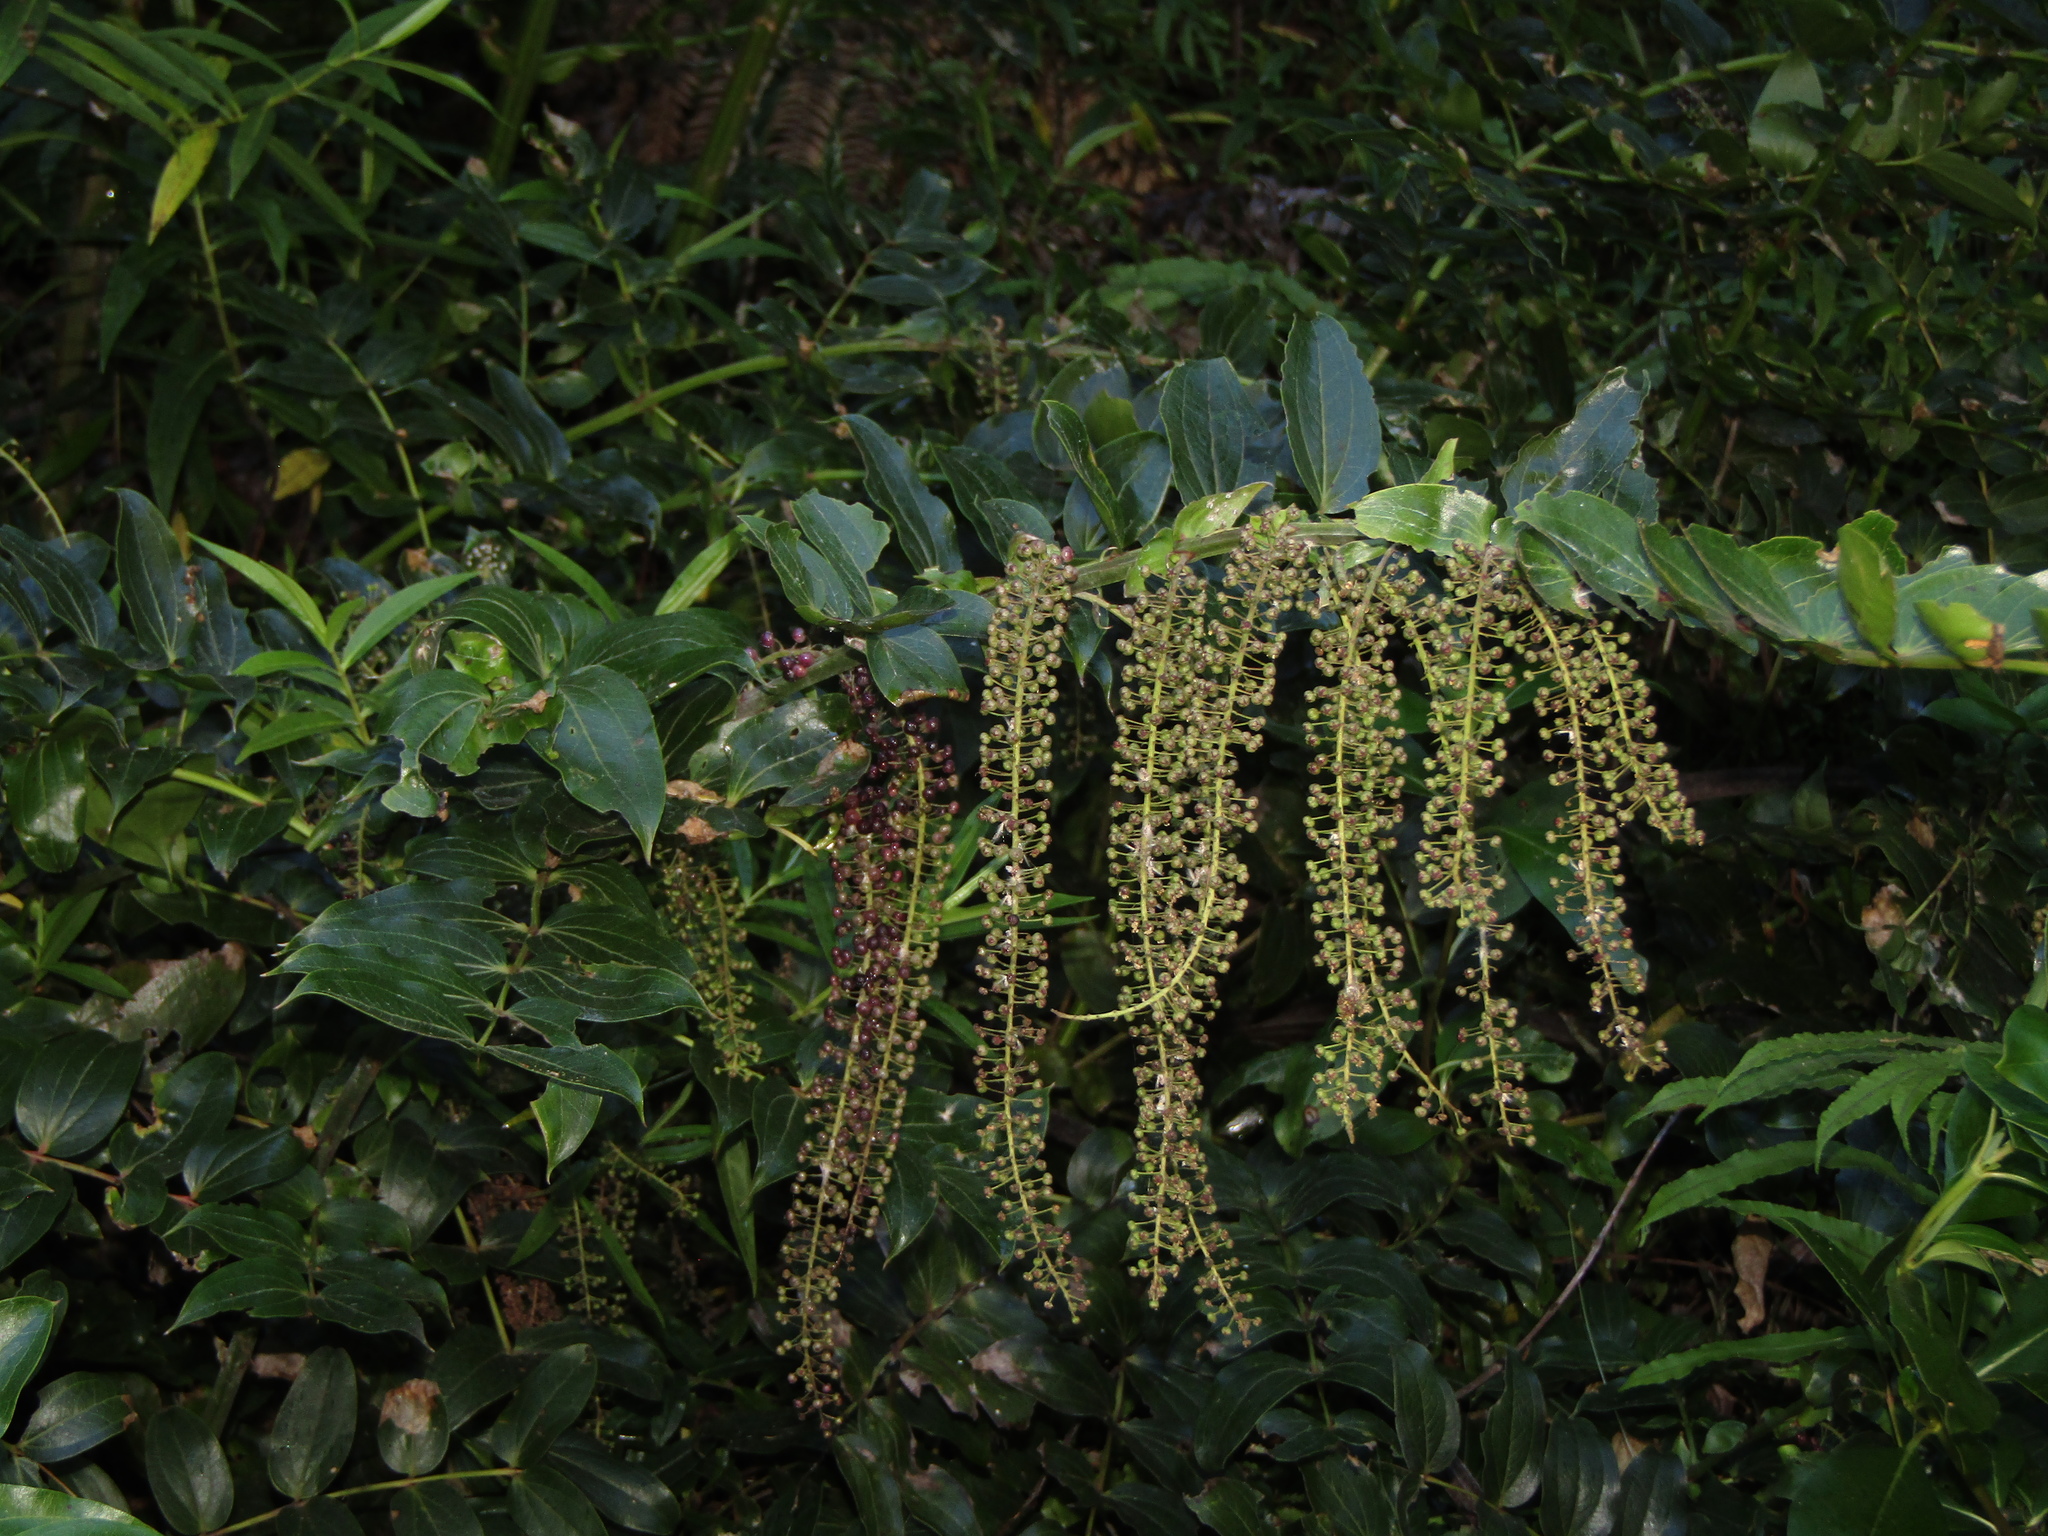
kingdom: Plantae
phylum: Tracheophyta
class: Magnoliopsida
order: Cucurbitales
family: Coriariaceae
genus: Coriaria
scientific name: Coriaria arborea
